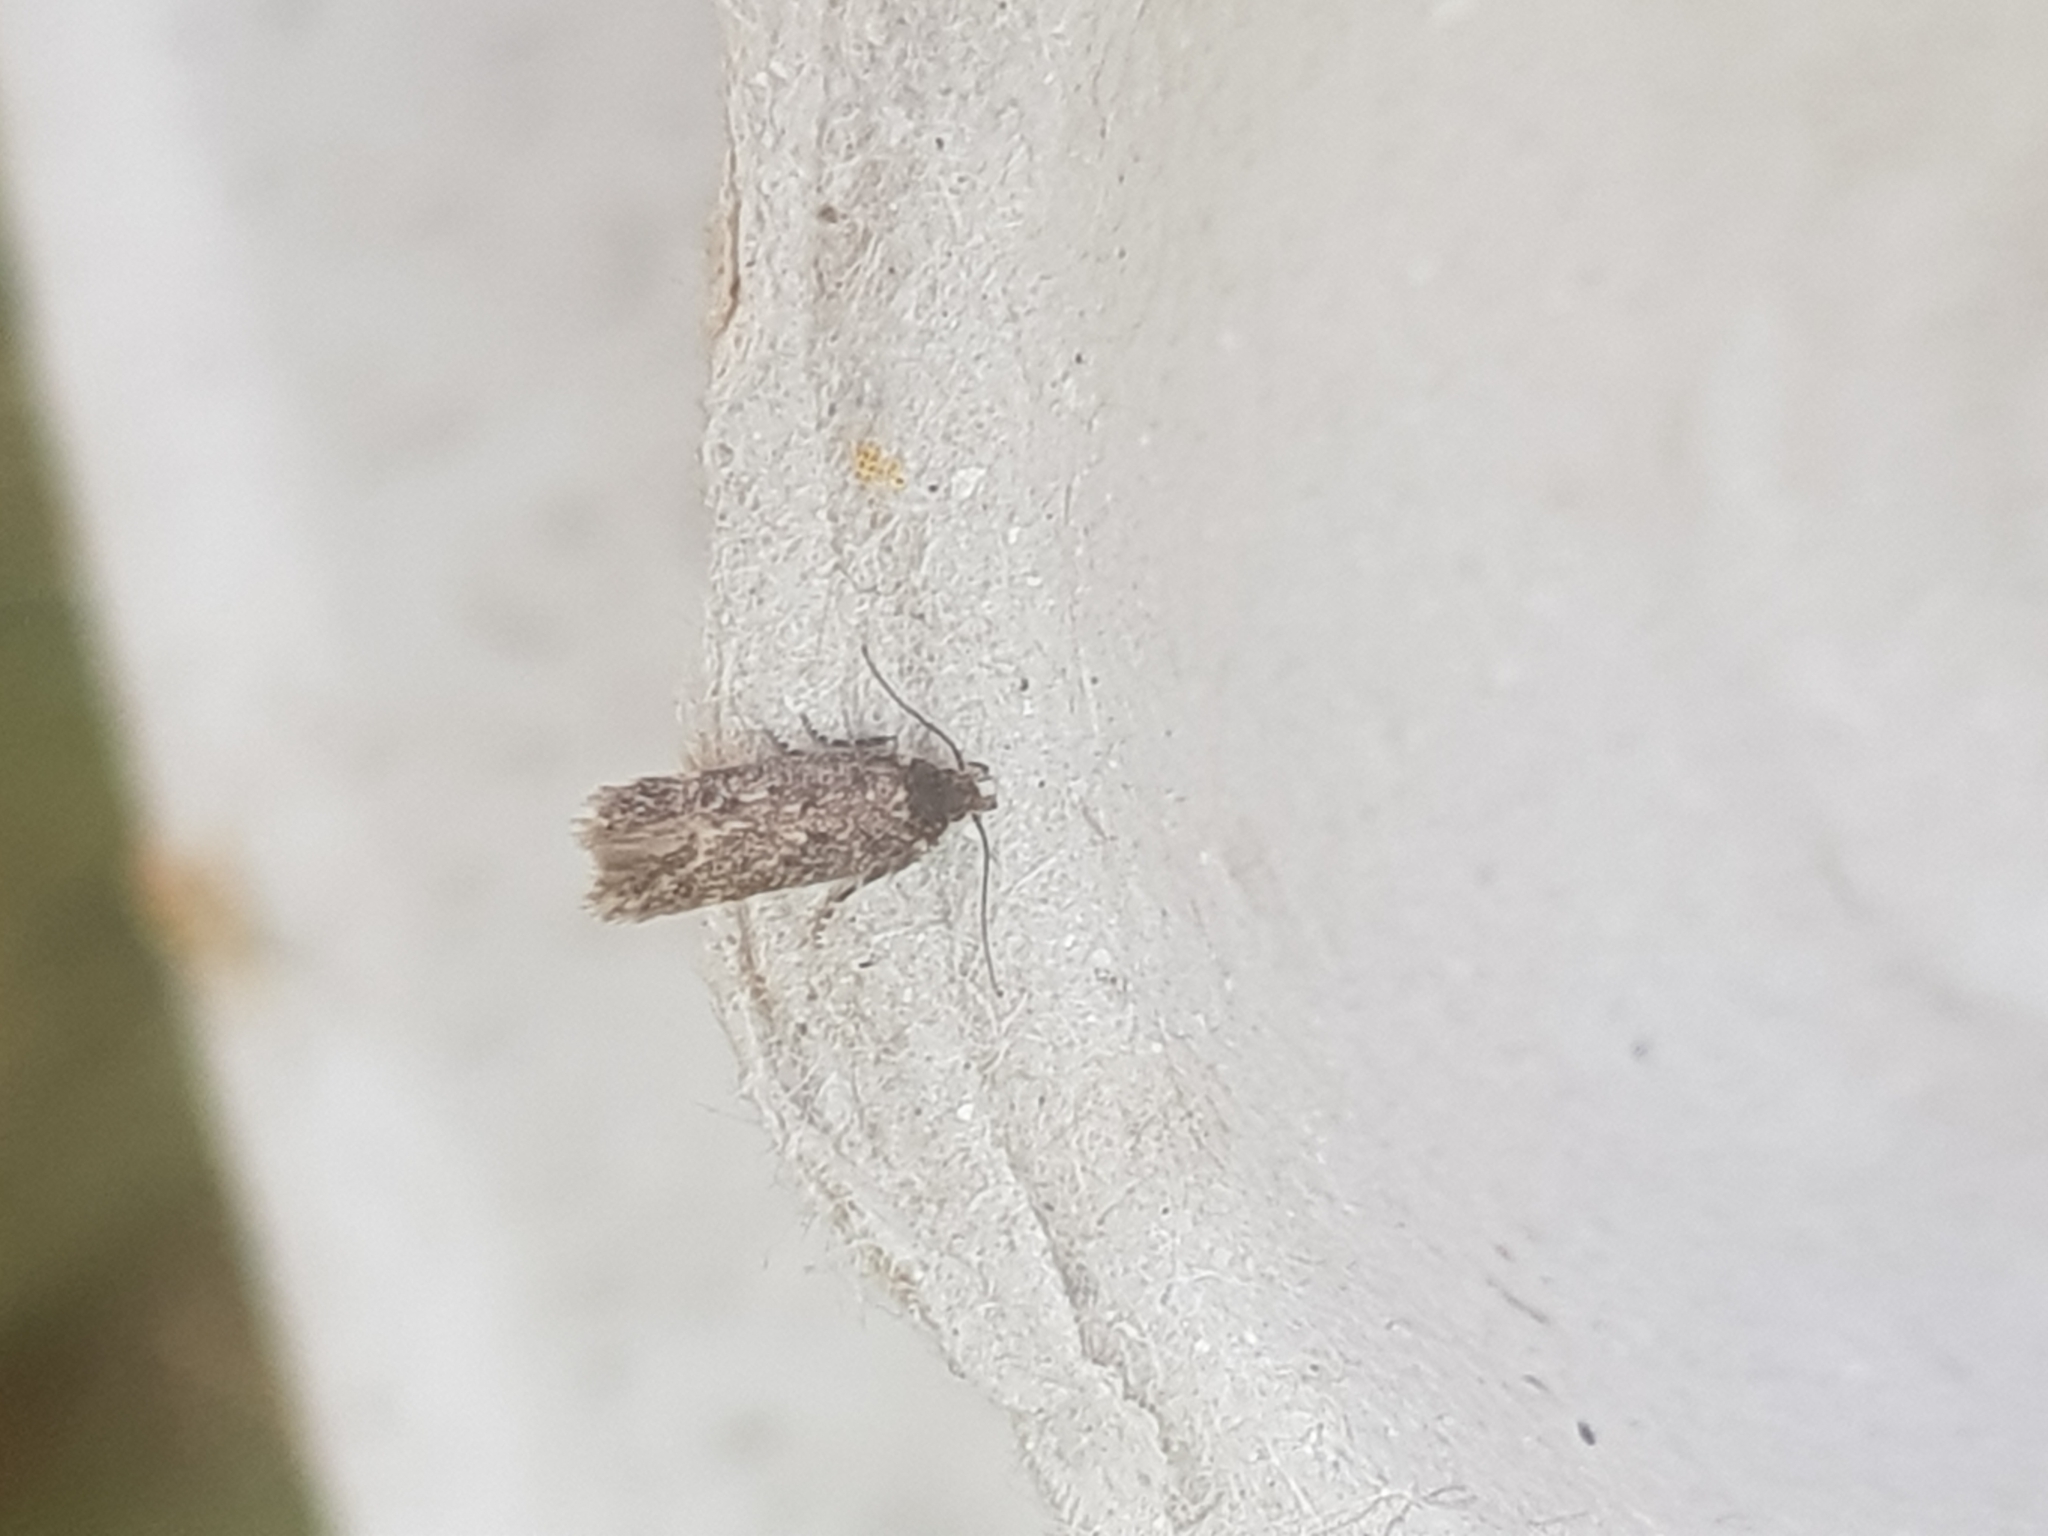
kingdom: Animalia
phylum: Arthropoda
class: Insecta
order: Lepidoptera
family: Oecophoridae
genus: Hofmannophila
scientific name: Hofmannophila pseudospretella
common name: Brown house moth
